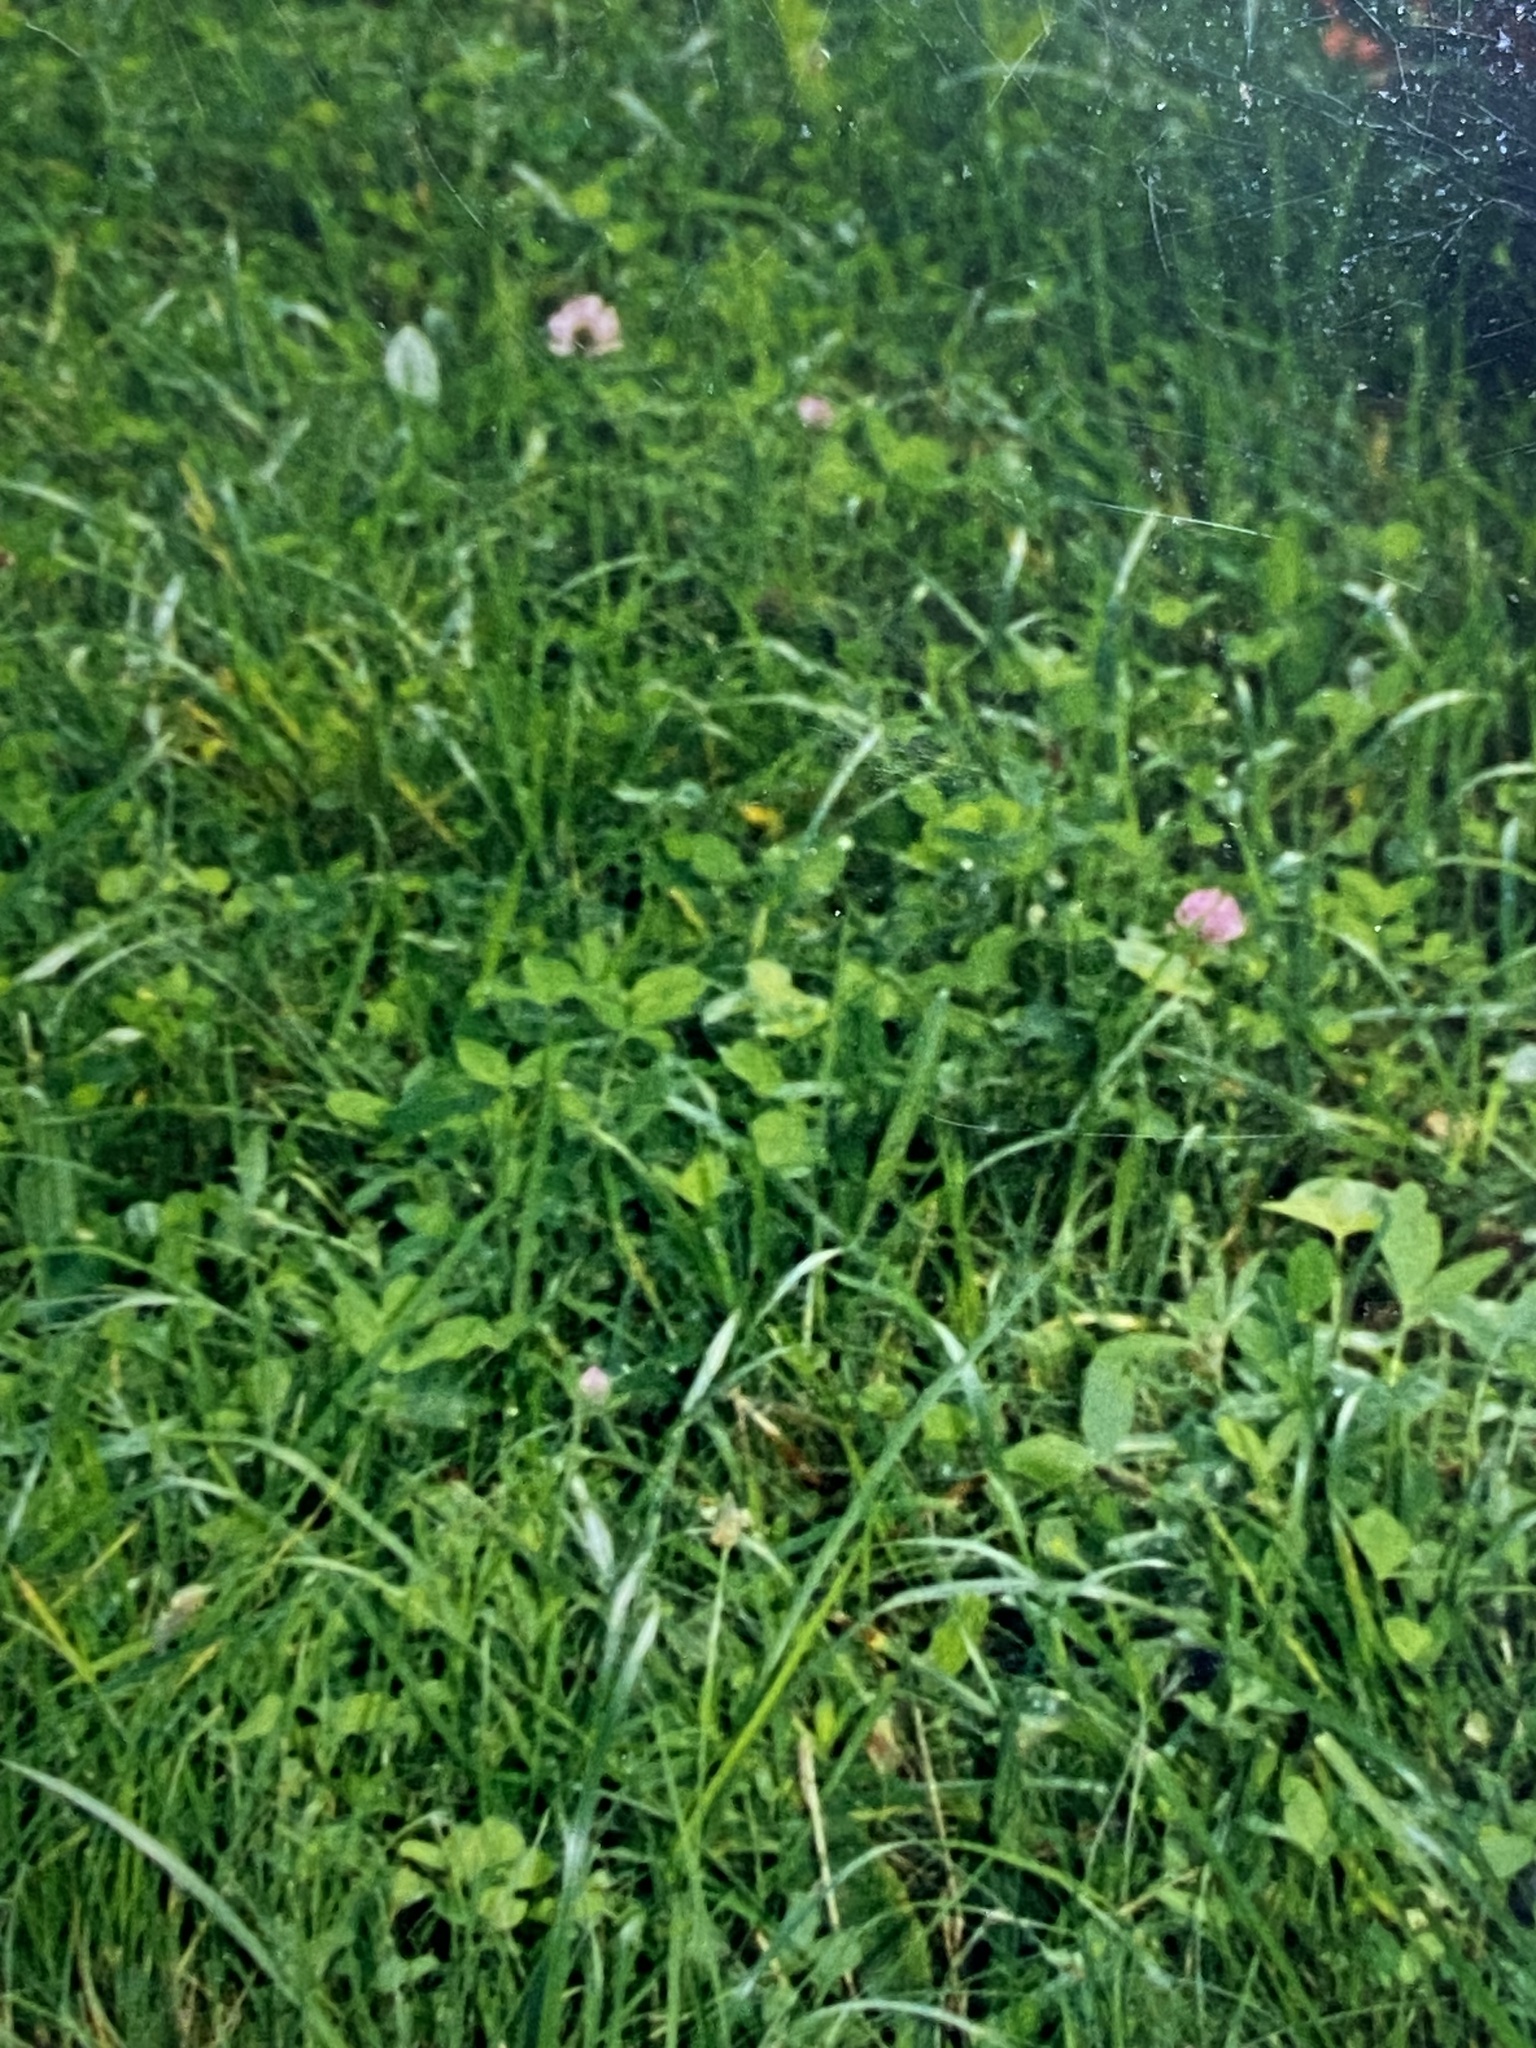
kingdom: Plantae
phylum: Tracheophyta
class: Magnoliopsida
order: Fabales
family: Fabaceae
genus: Trifolium
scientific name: Trifolium pratense
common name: Red clover
